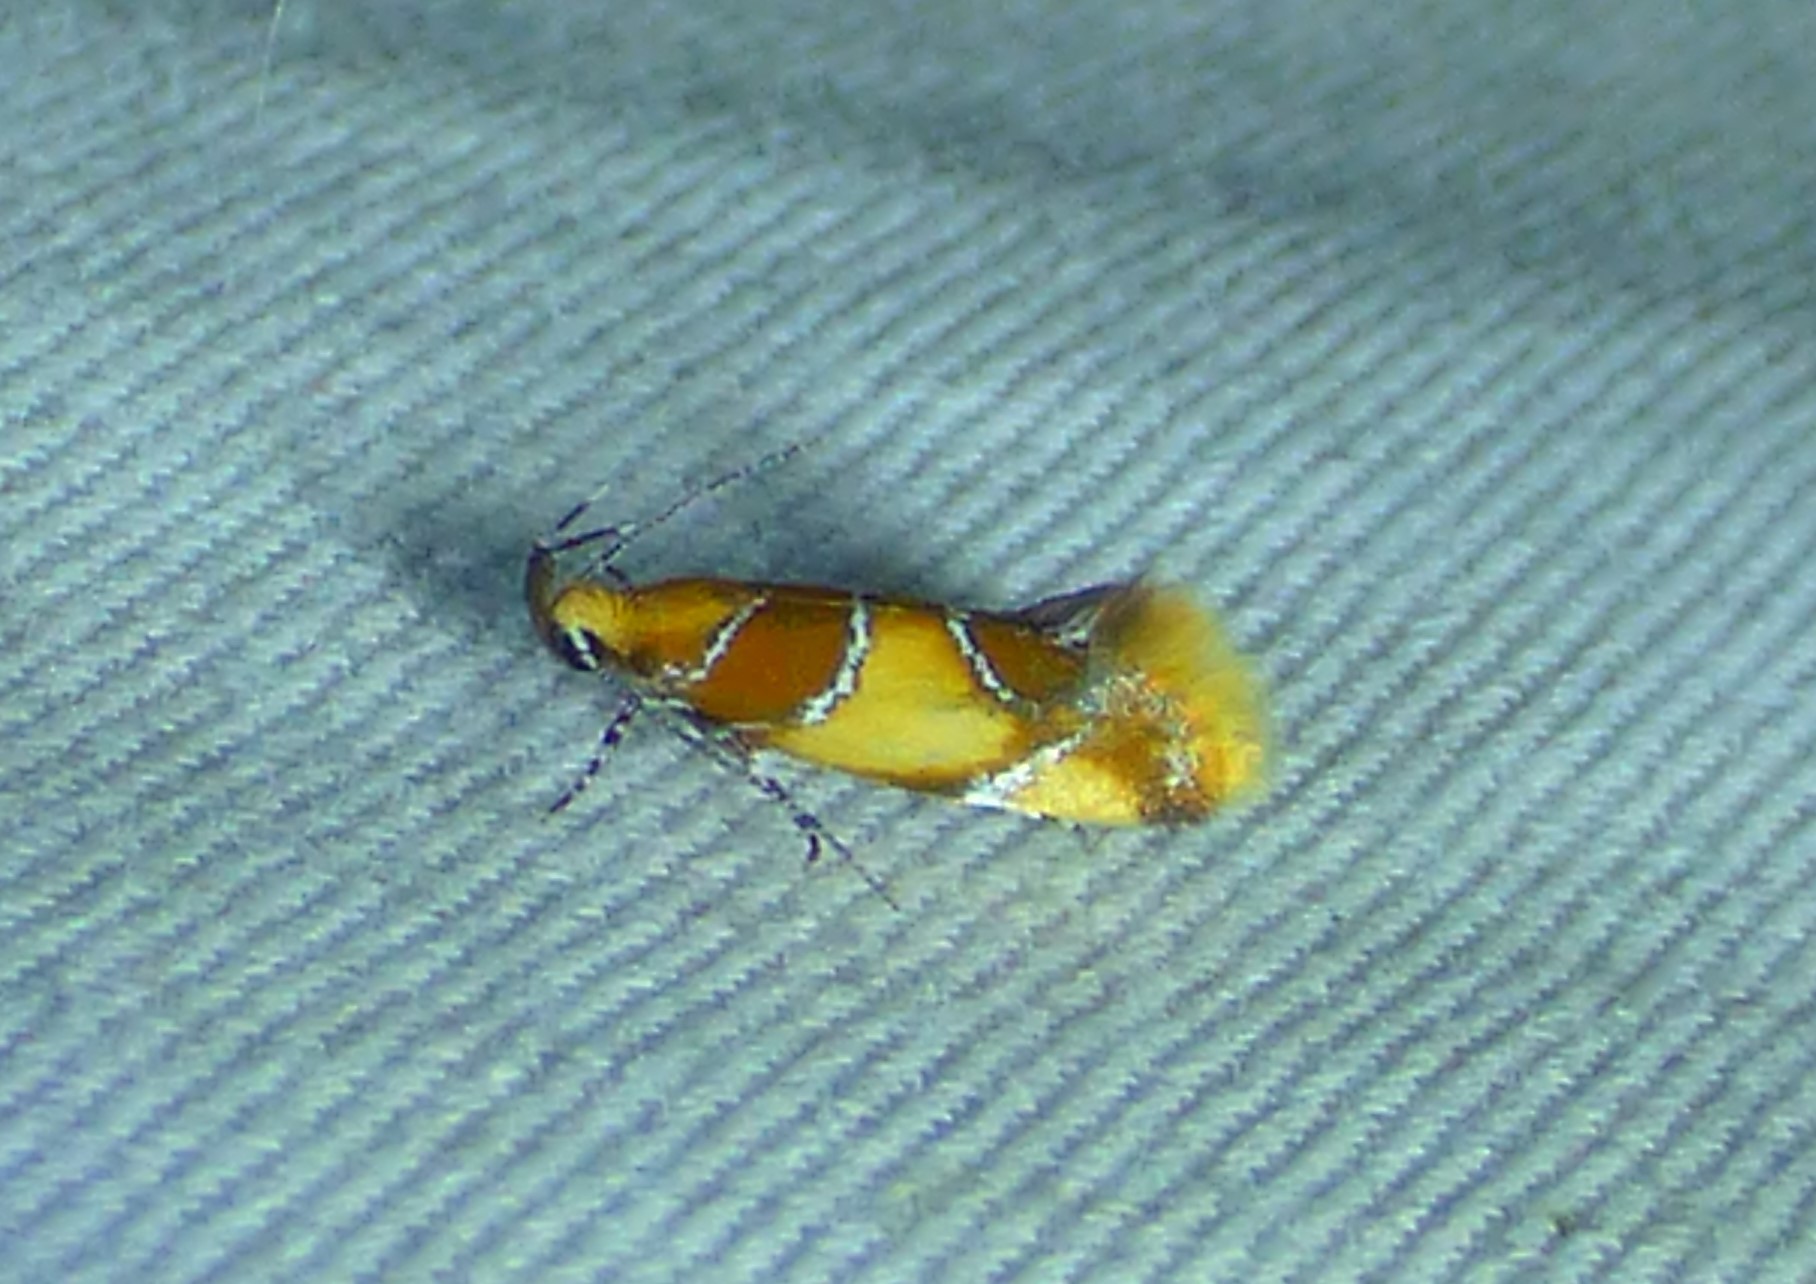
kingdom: Animalia
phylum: Arthropoda
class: Insecta
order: Lepidoptera
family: Oecophoridae
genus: Callima
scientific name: Callima argenticinctella
